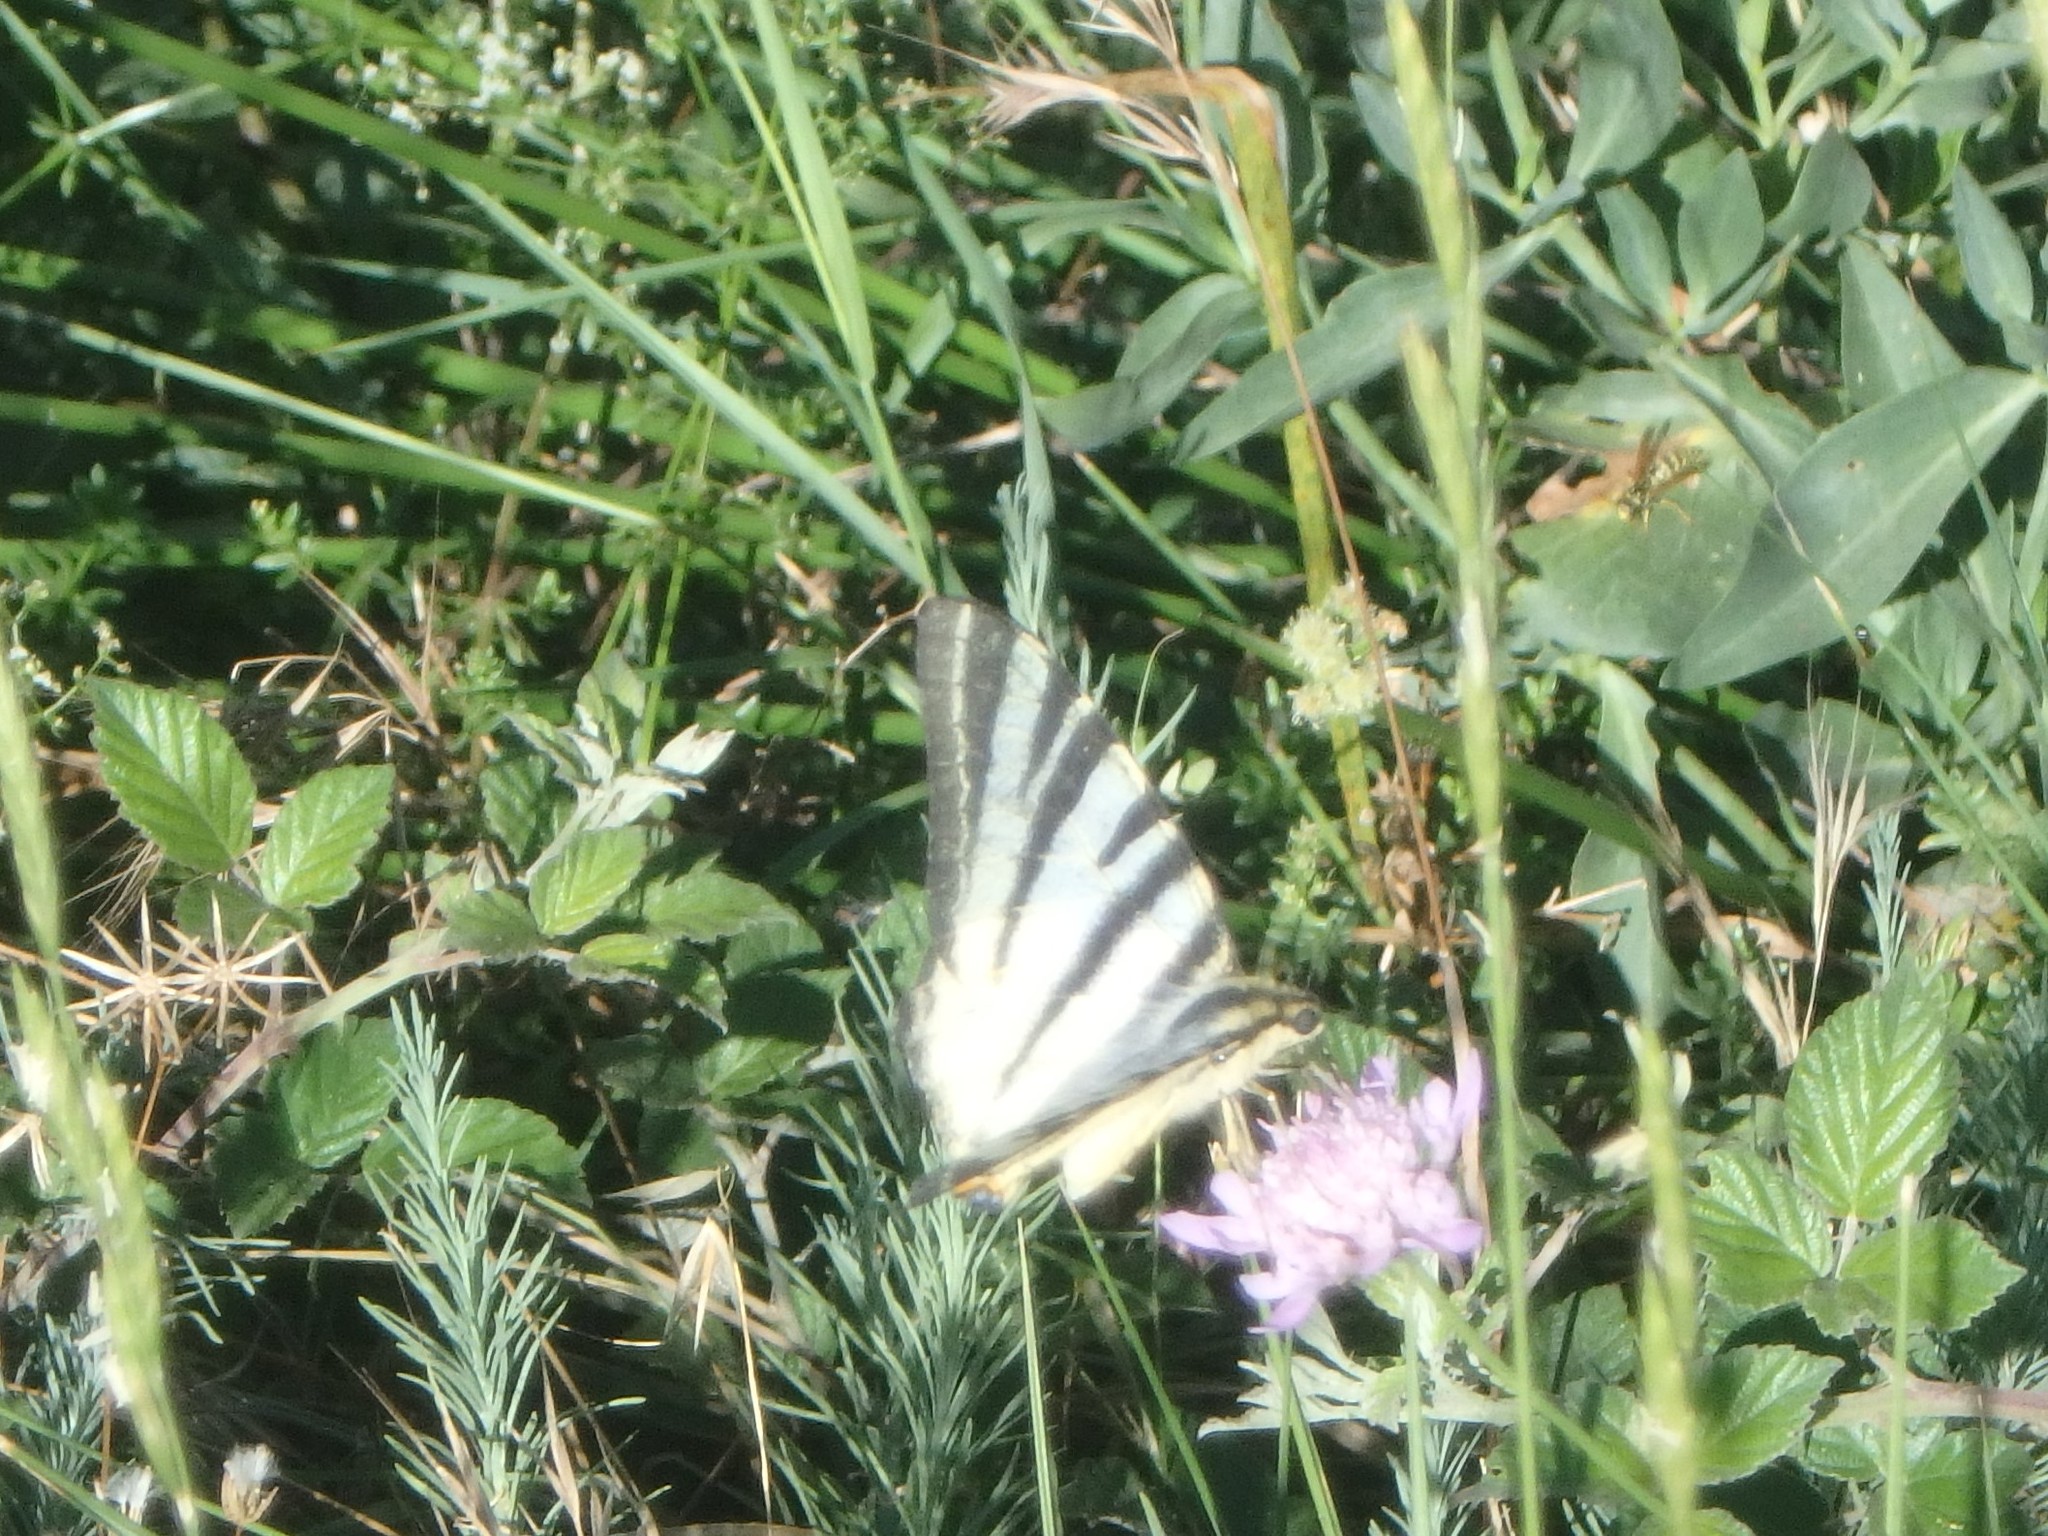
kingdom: Animalia
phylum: Arthropoda
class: Insecta
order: Lepidoptera
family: Papilionidae
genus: Iphiclides
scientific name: Iphiclides podalirius
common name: Scarce swallowtail
